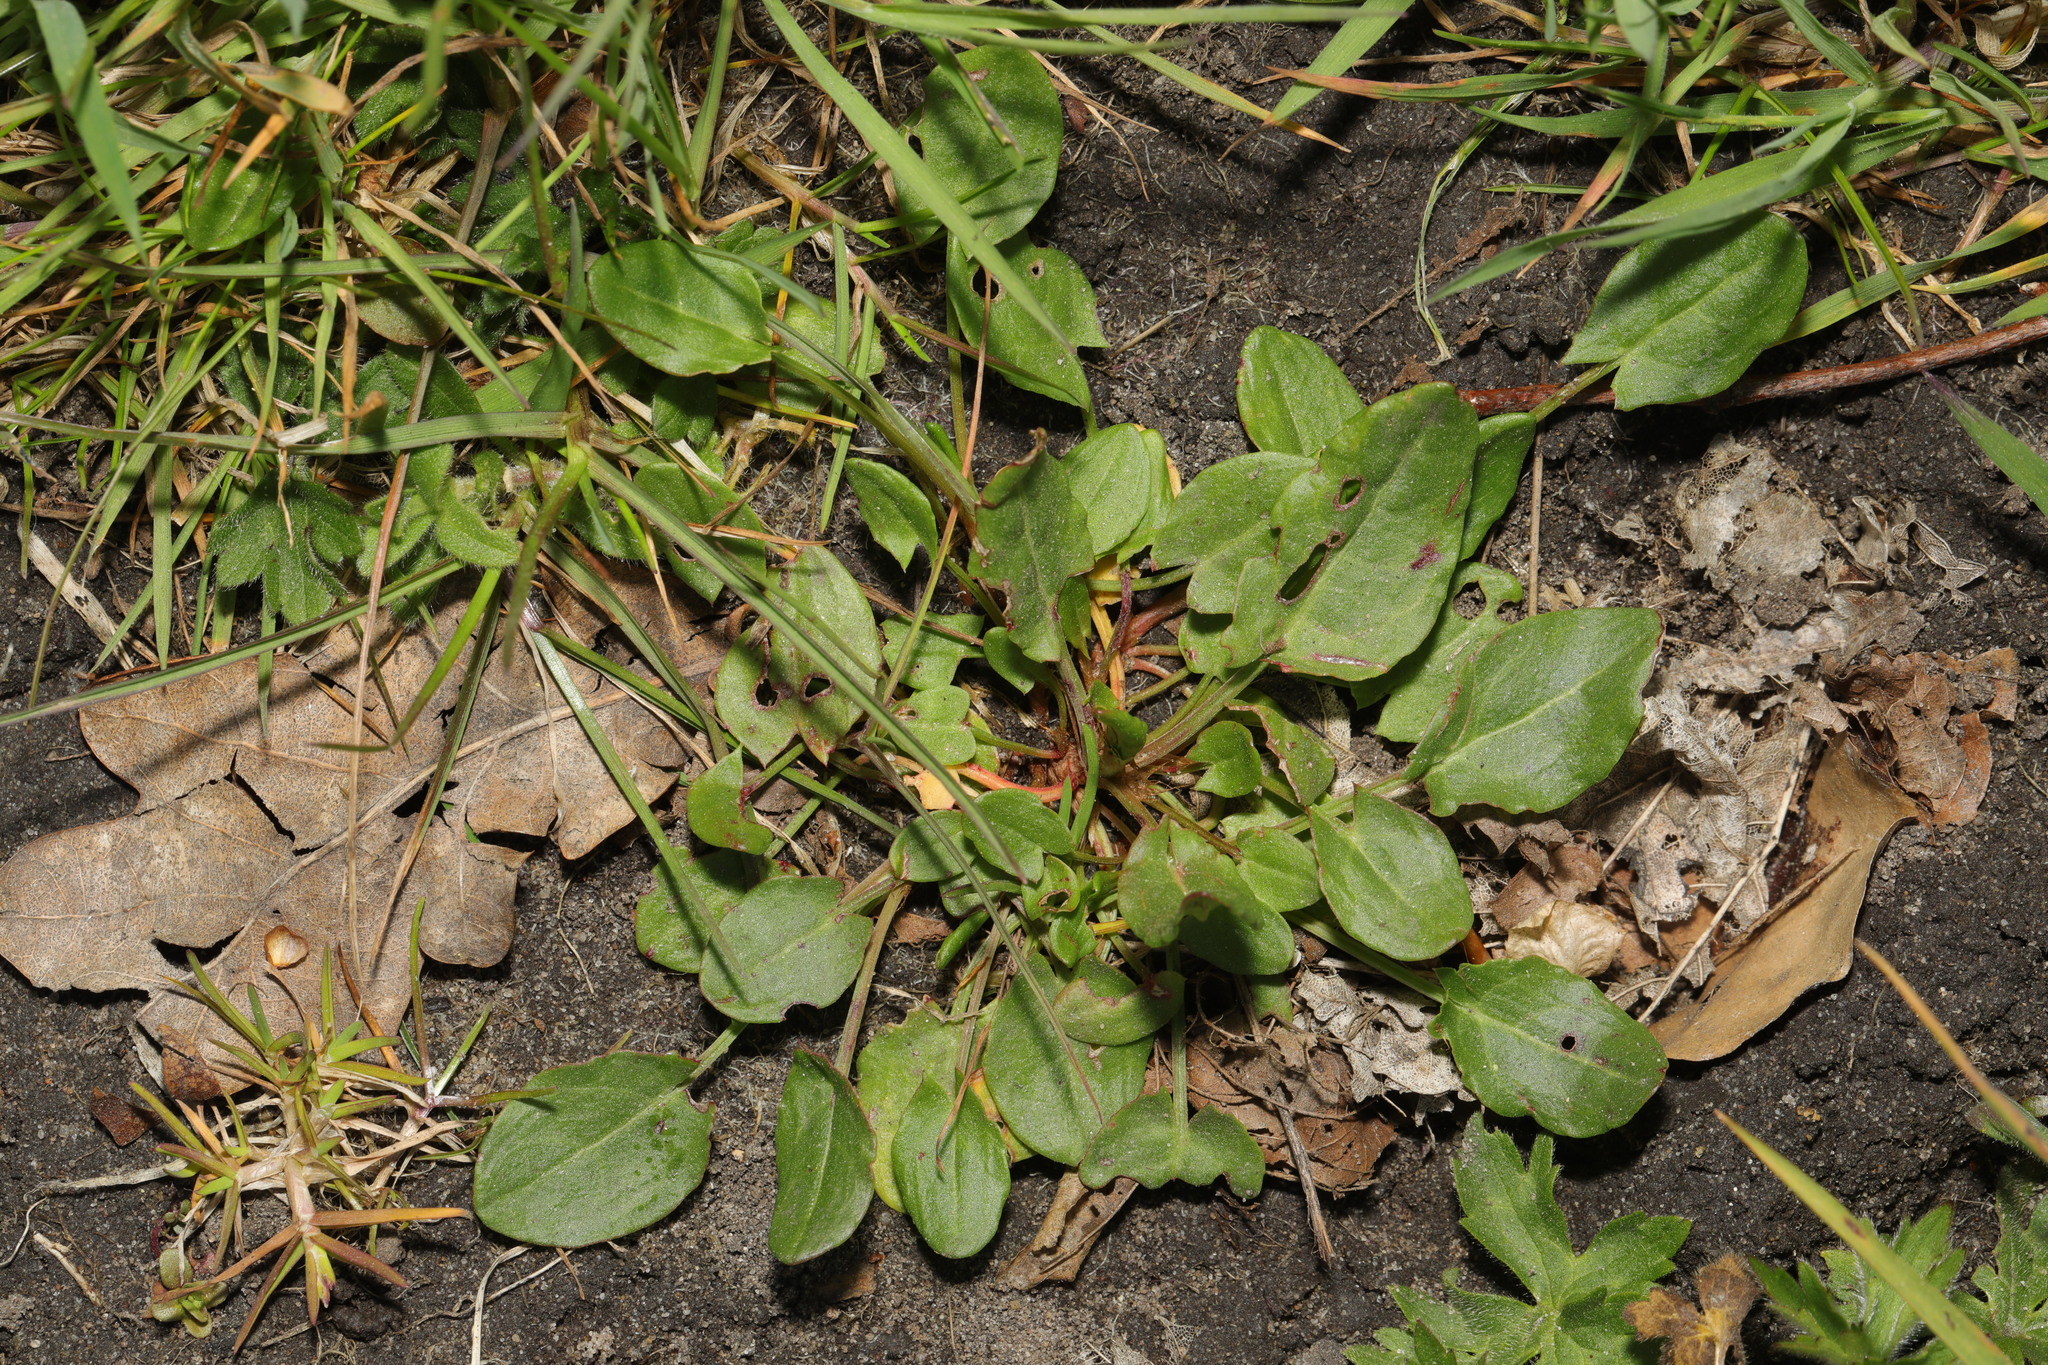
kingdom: Plantae
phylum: Tracheophyta
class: Magnoliopsida
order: Caryophyllales
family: Polygonaceae
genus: Rumex
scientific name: Rumex acetosa
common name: Garden sorrel
